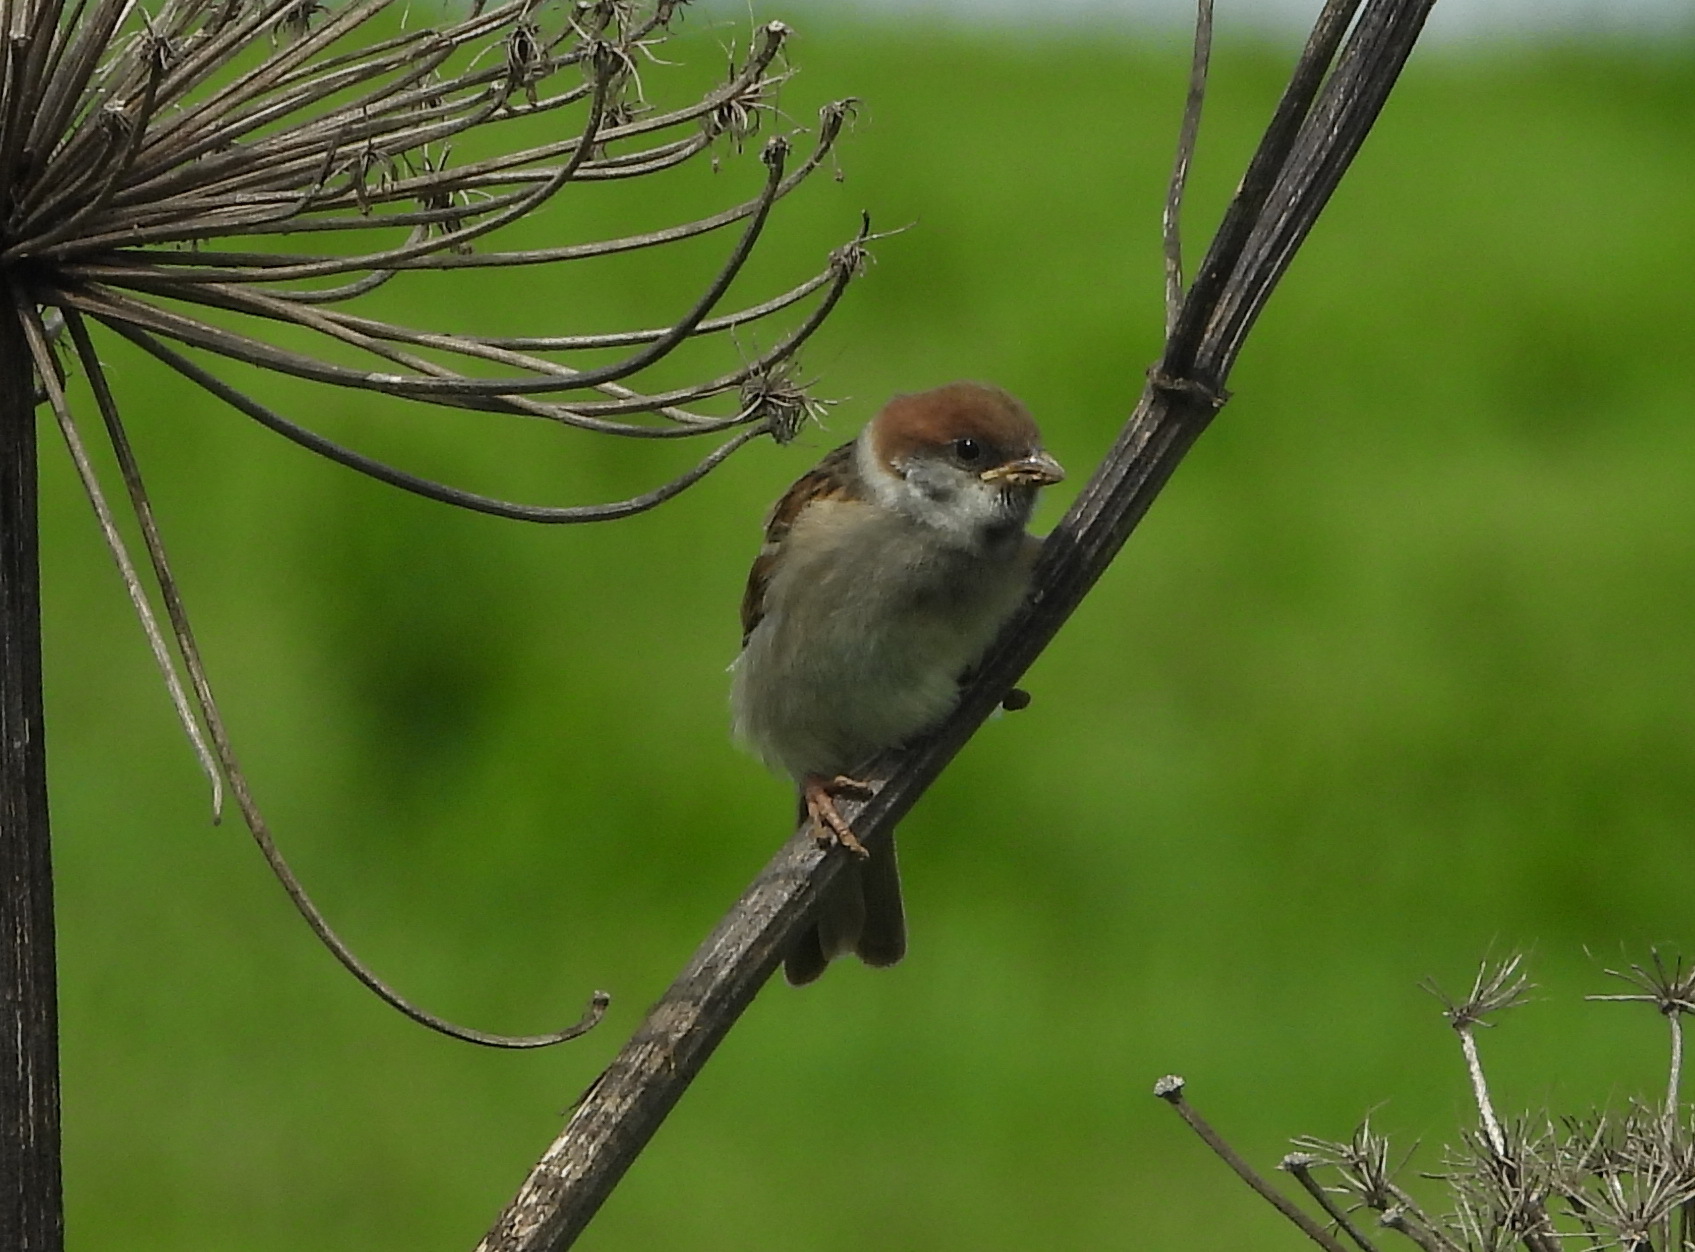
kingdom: Animalia
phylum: Chordata
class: Aves
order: Passeriformes
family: Passeridae
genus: Passer
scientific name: Passer montanus
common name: Eurasian tree sparrow
